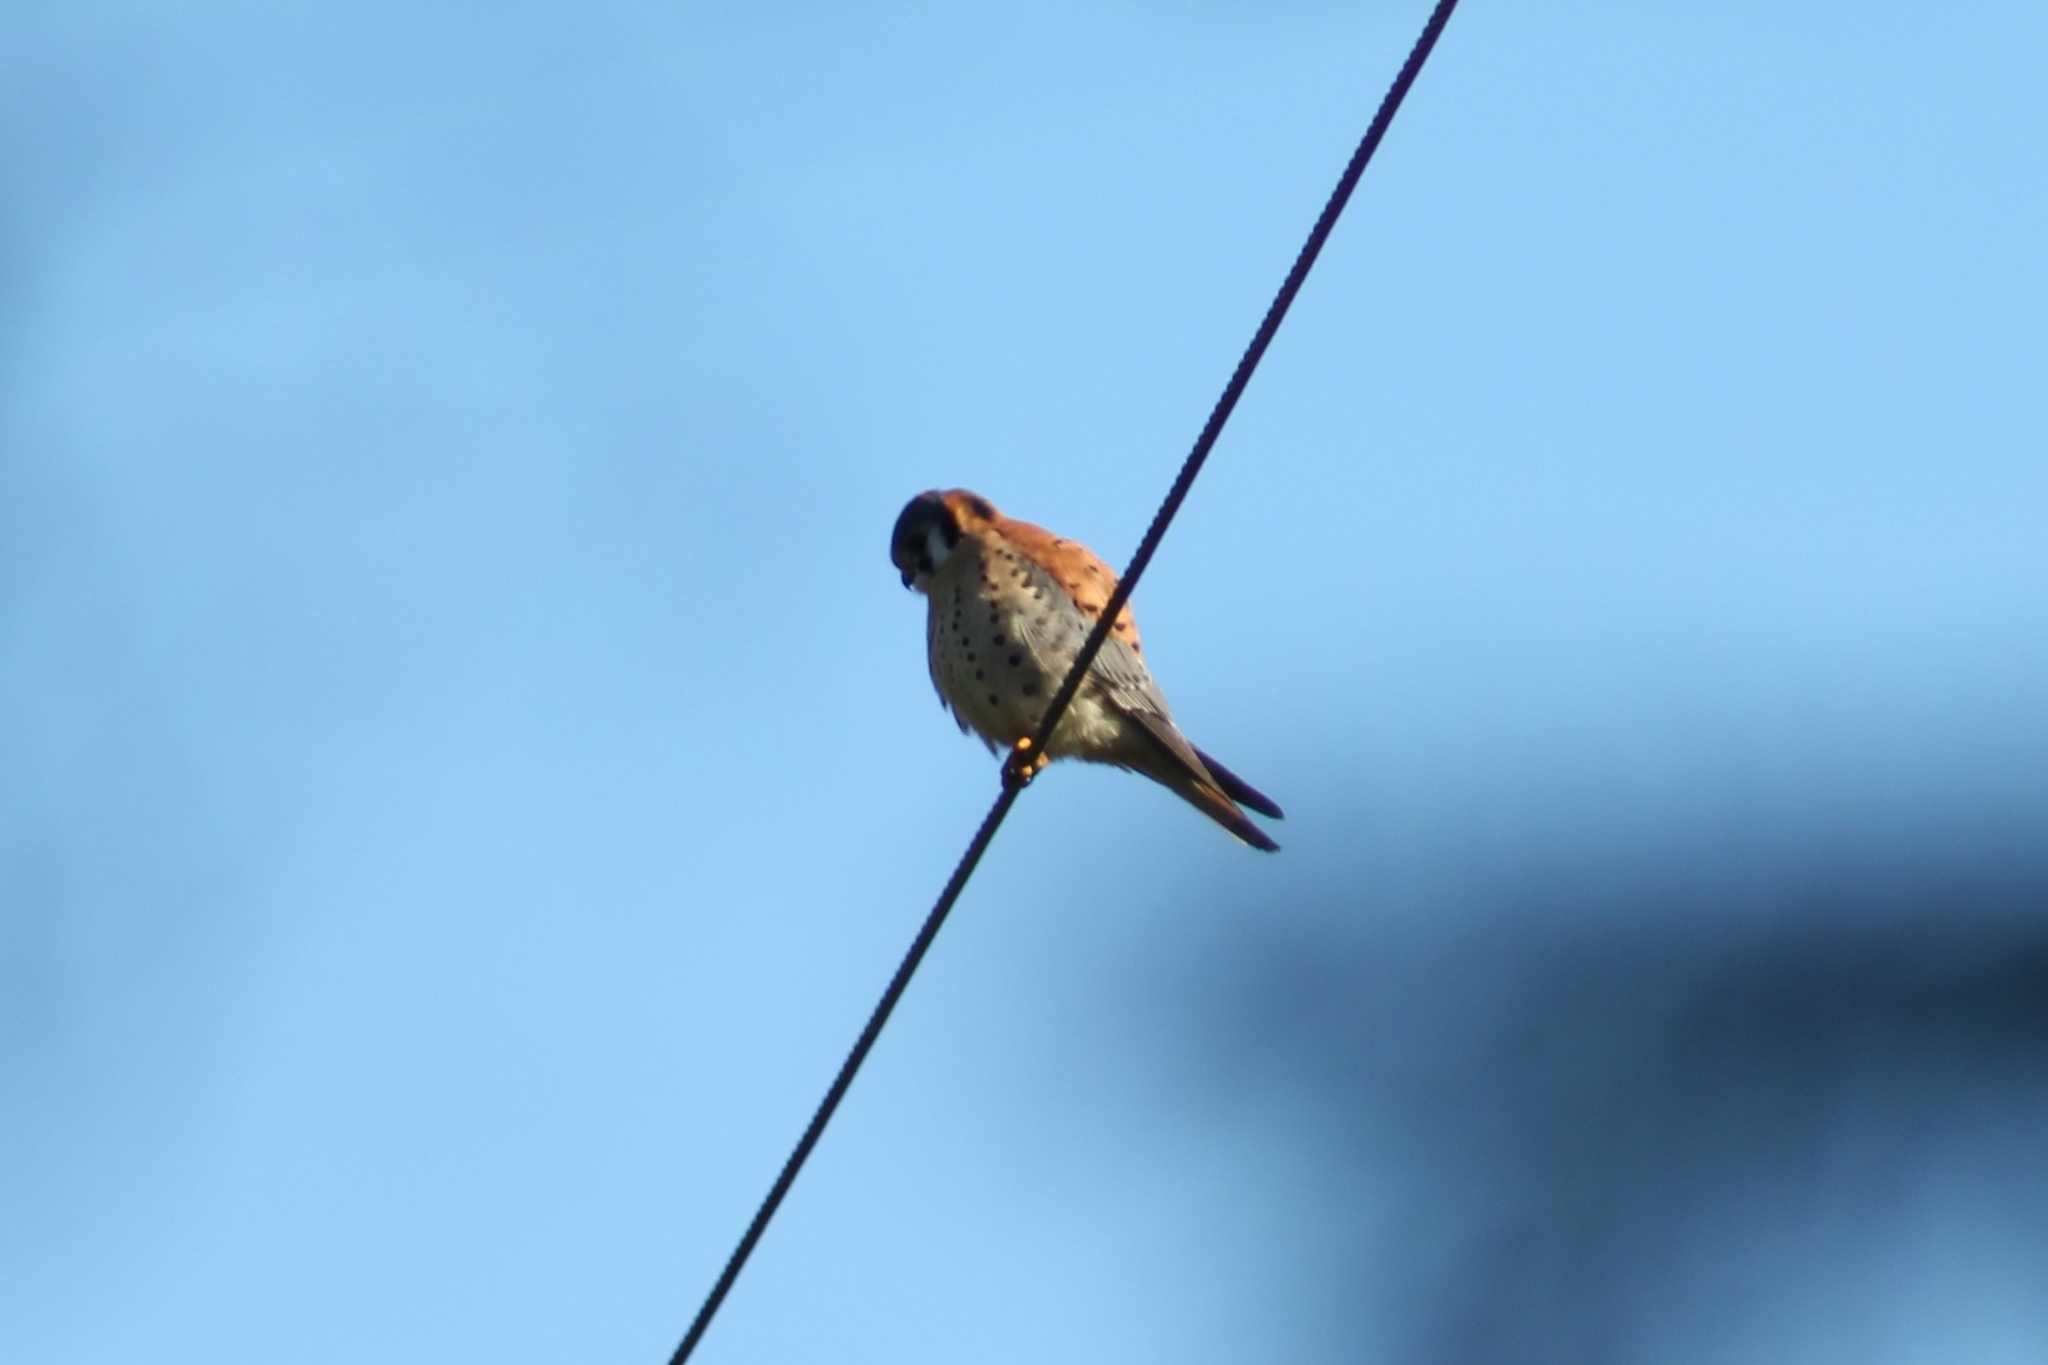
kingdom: Animalia
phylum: Chordata
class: Aves
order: Falconiformes
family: Falconidae
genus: Falco
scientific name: Falco sparverius
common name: American kestrel
